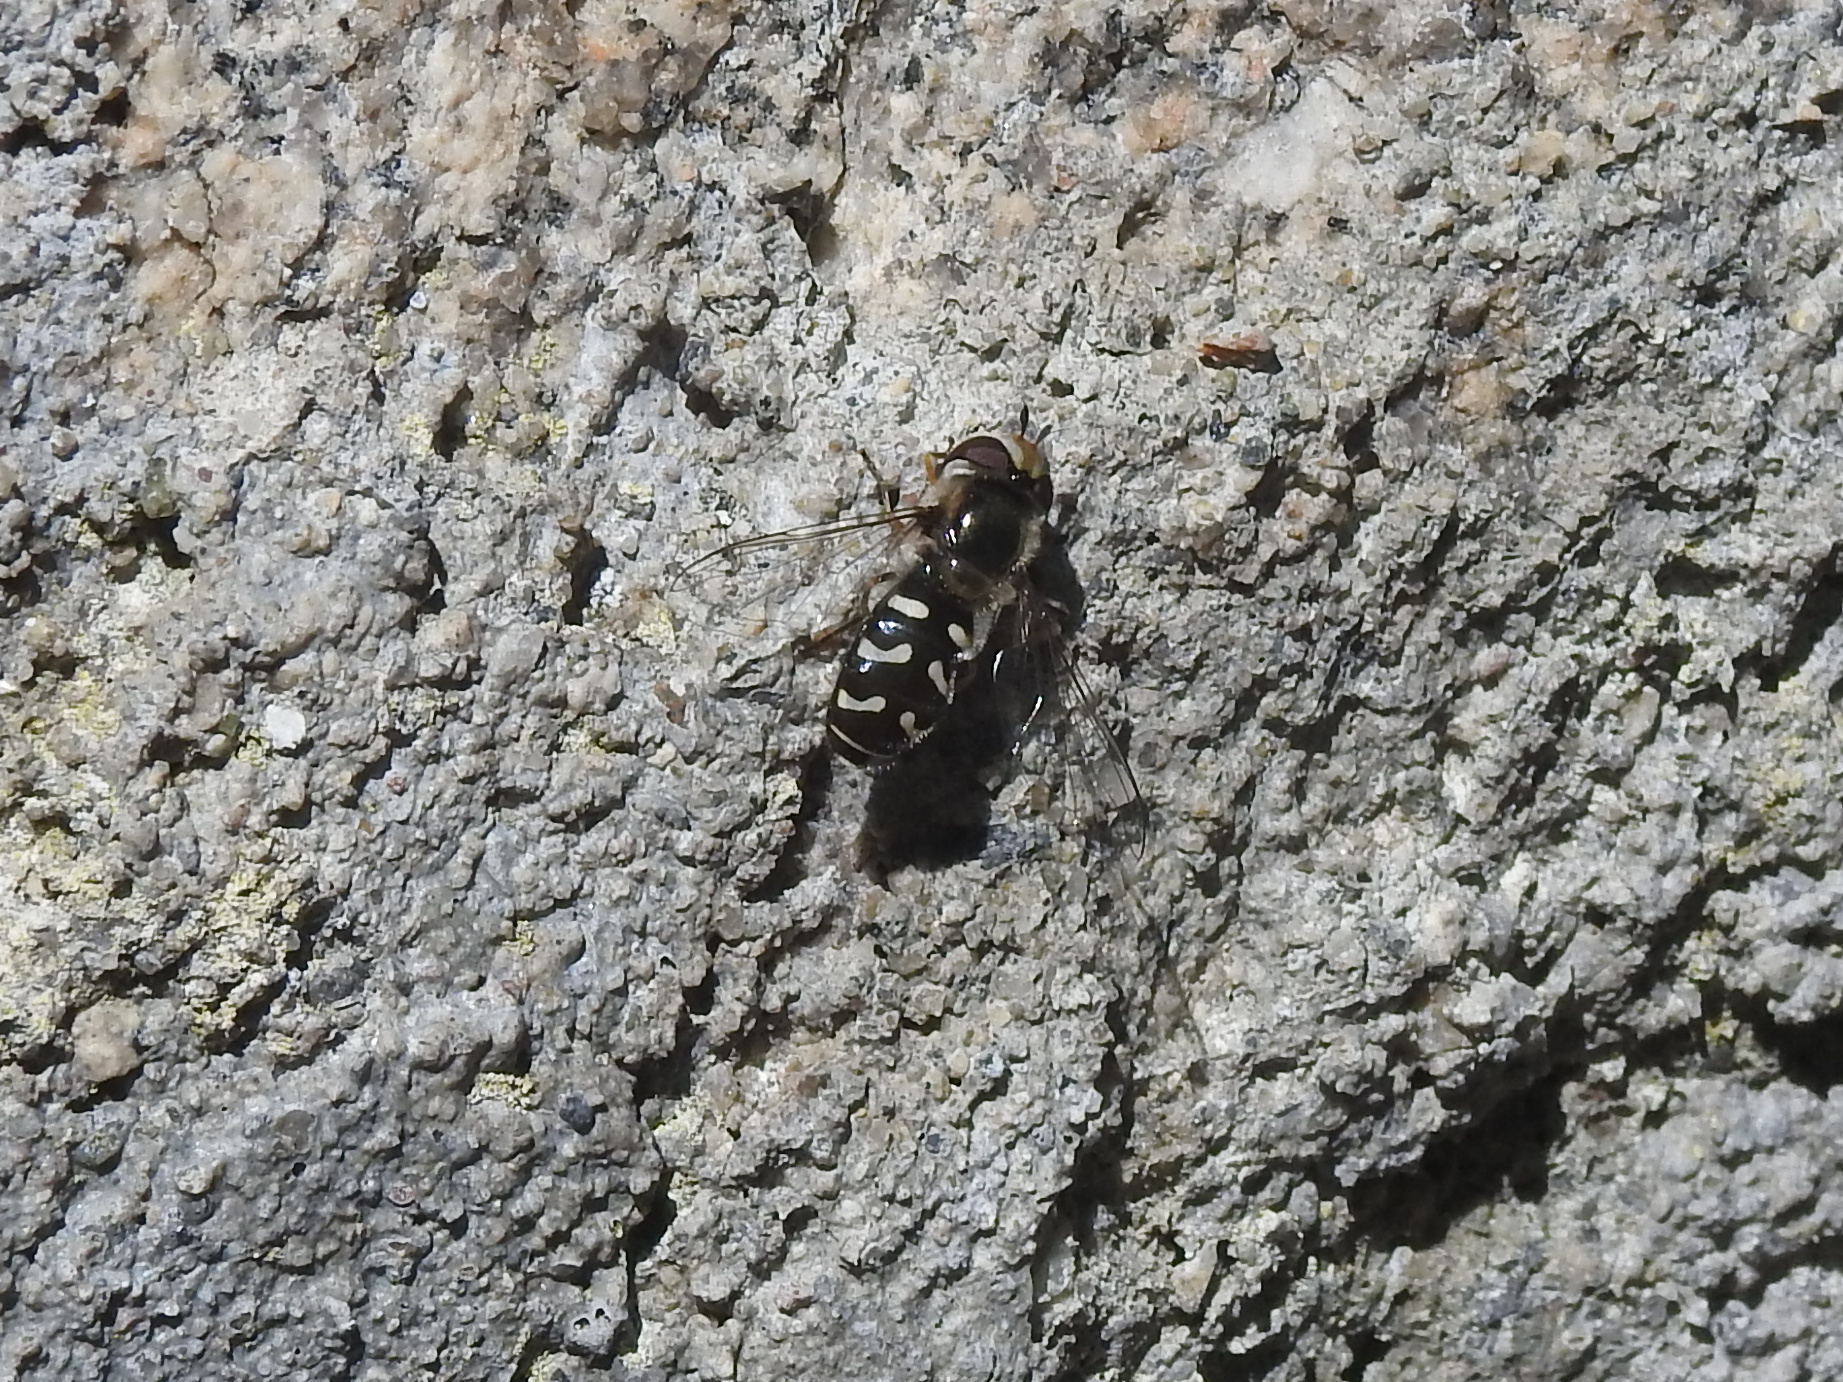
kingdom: Animalia
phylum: Arthropoda
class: Insecta
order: Diptera
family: Syrphidae
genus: Scaeva
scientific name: Scaeva pyrastri
